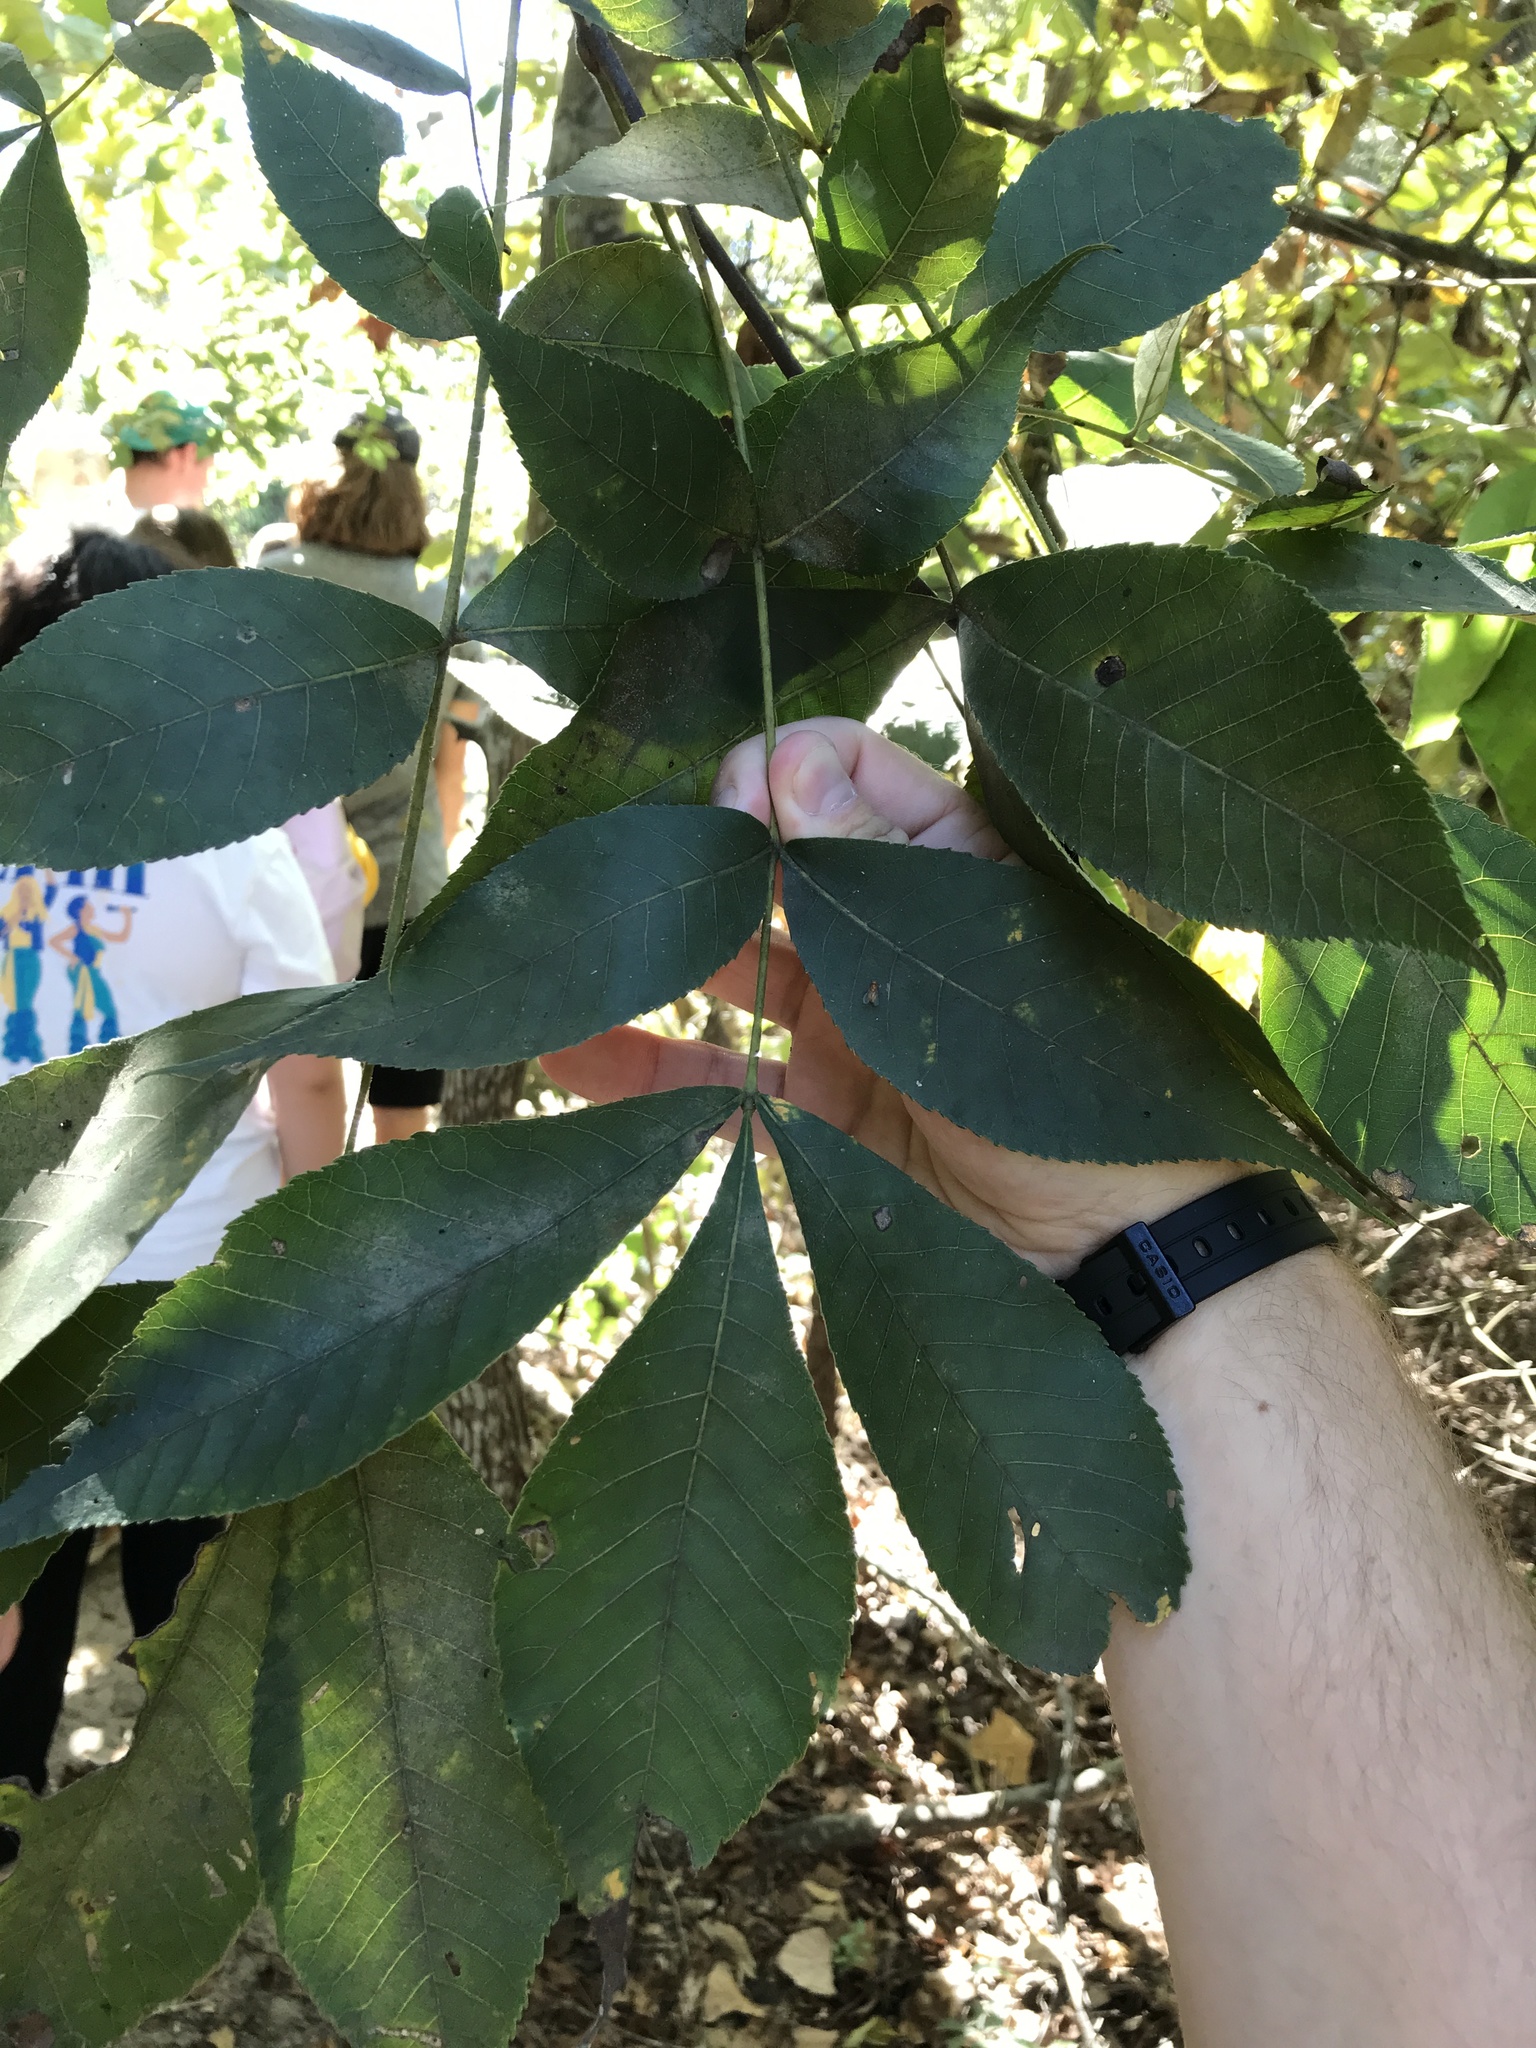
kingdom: Plantae
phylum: Tracheophyta
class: Magnoliopsida
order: Fagales
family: Juglandaceae
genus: Carya
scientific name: Carya texana
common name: Black hickory
